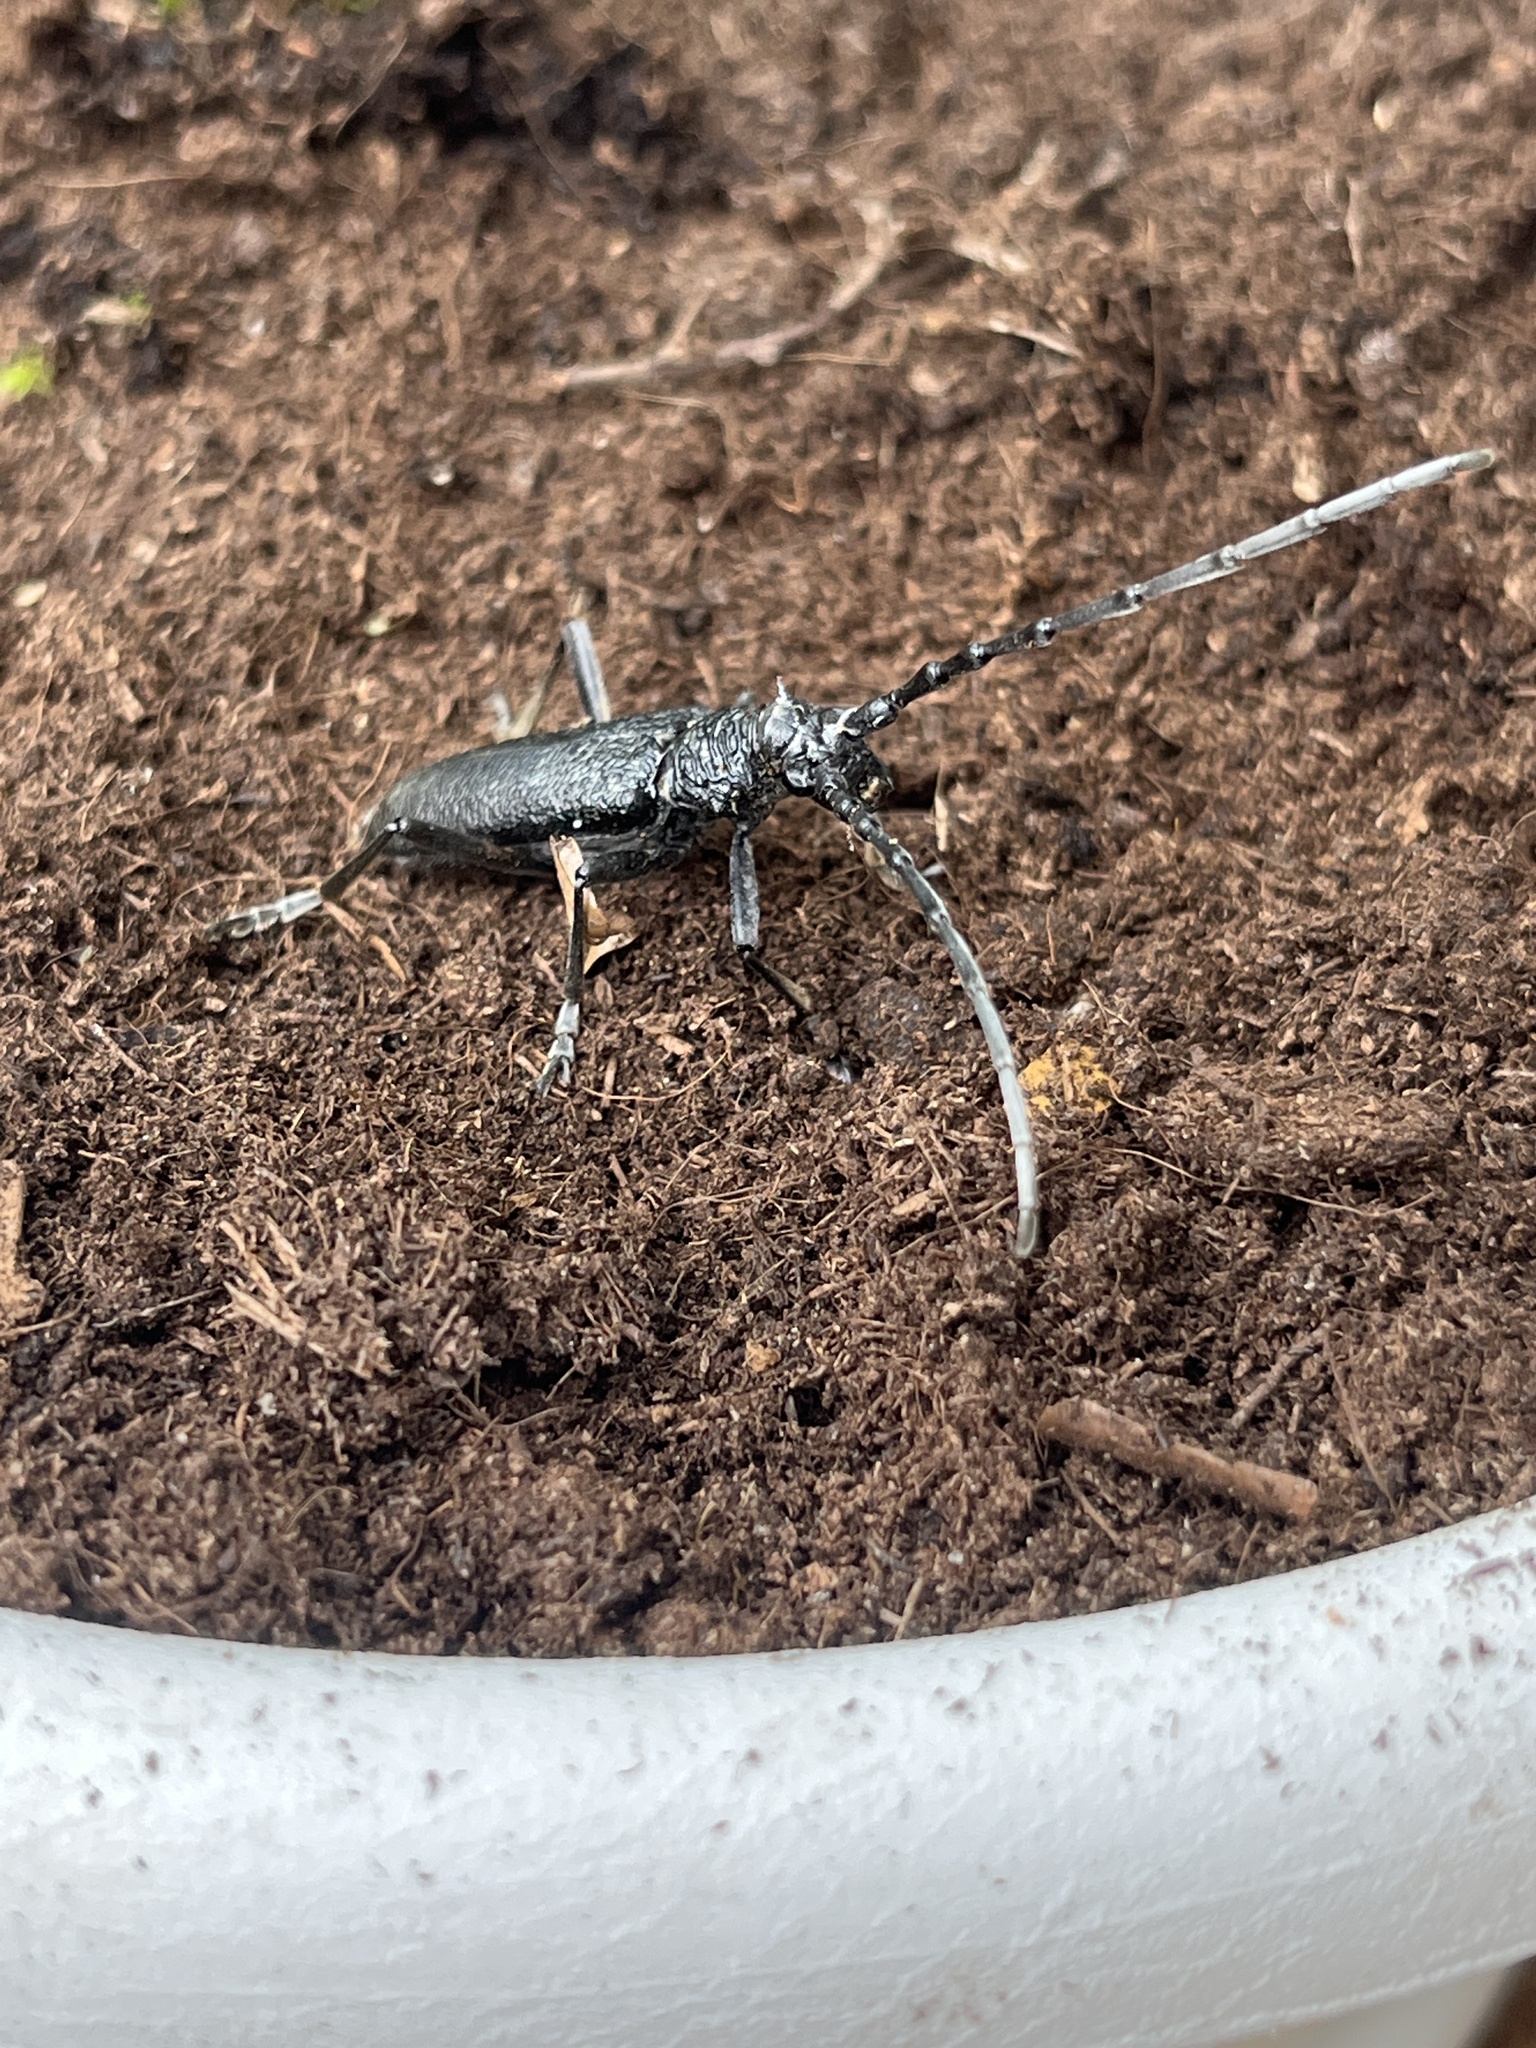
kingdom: Animalia
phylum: Arthropoda
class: Insecta
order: Coleoptera
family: Cerambycidae
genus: Cerambyx
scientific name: Cerambyx scopolii
